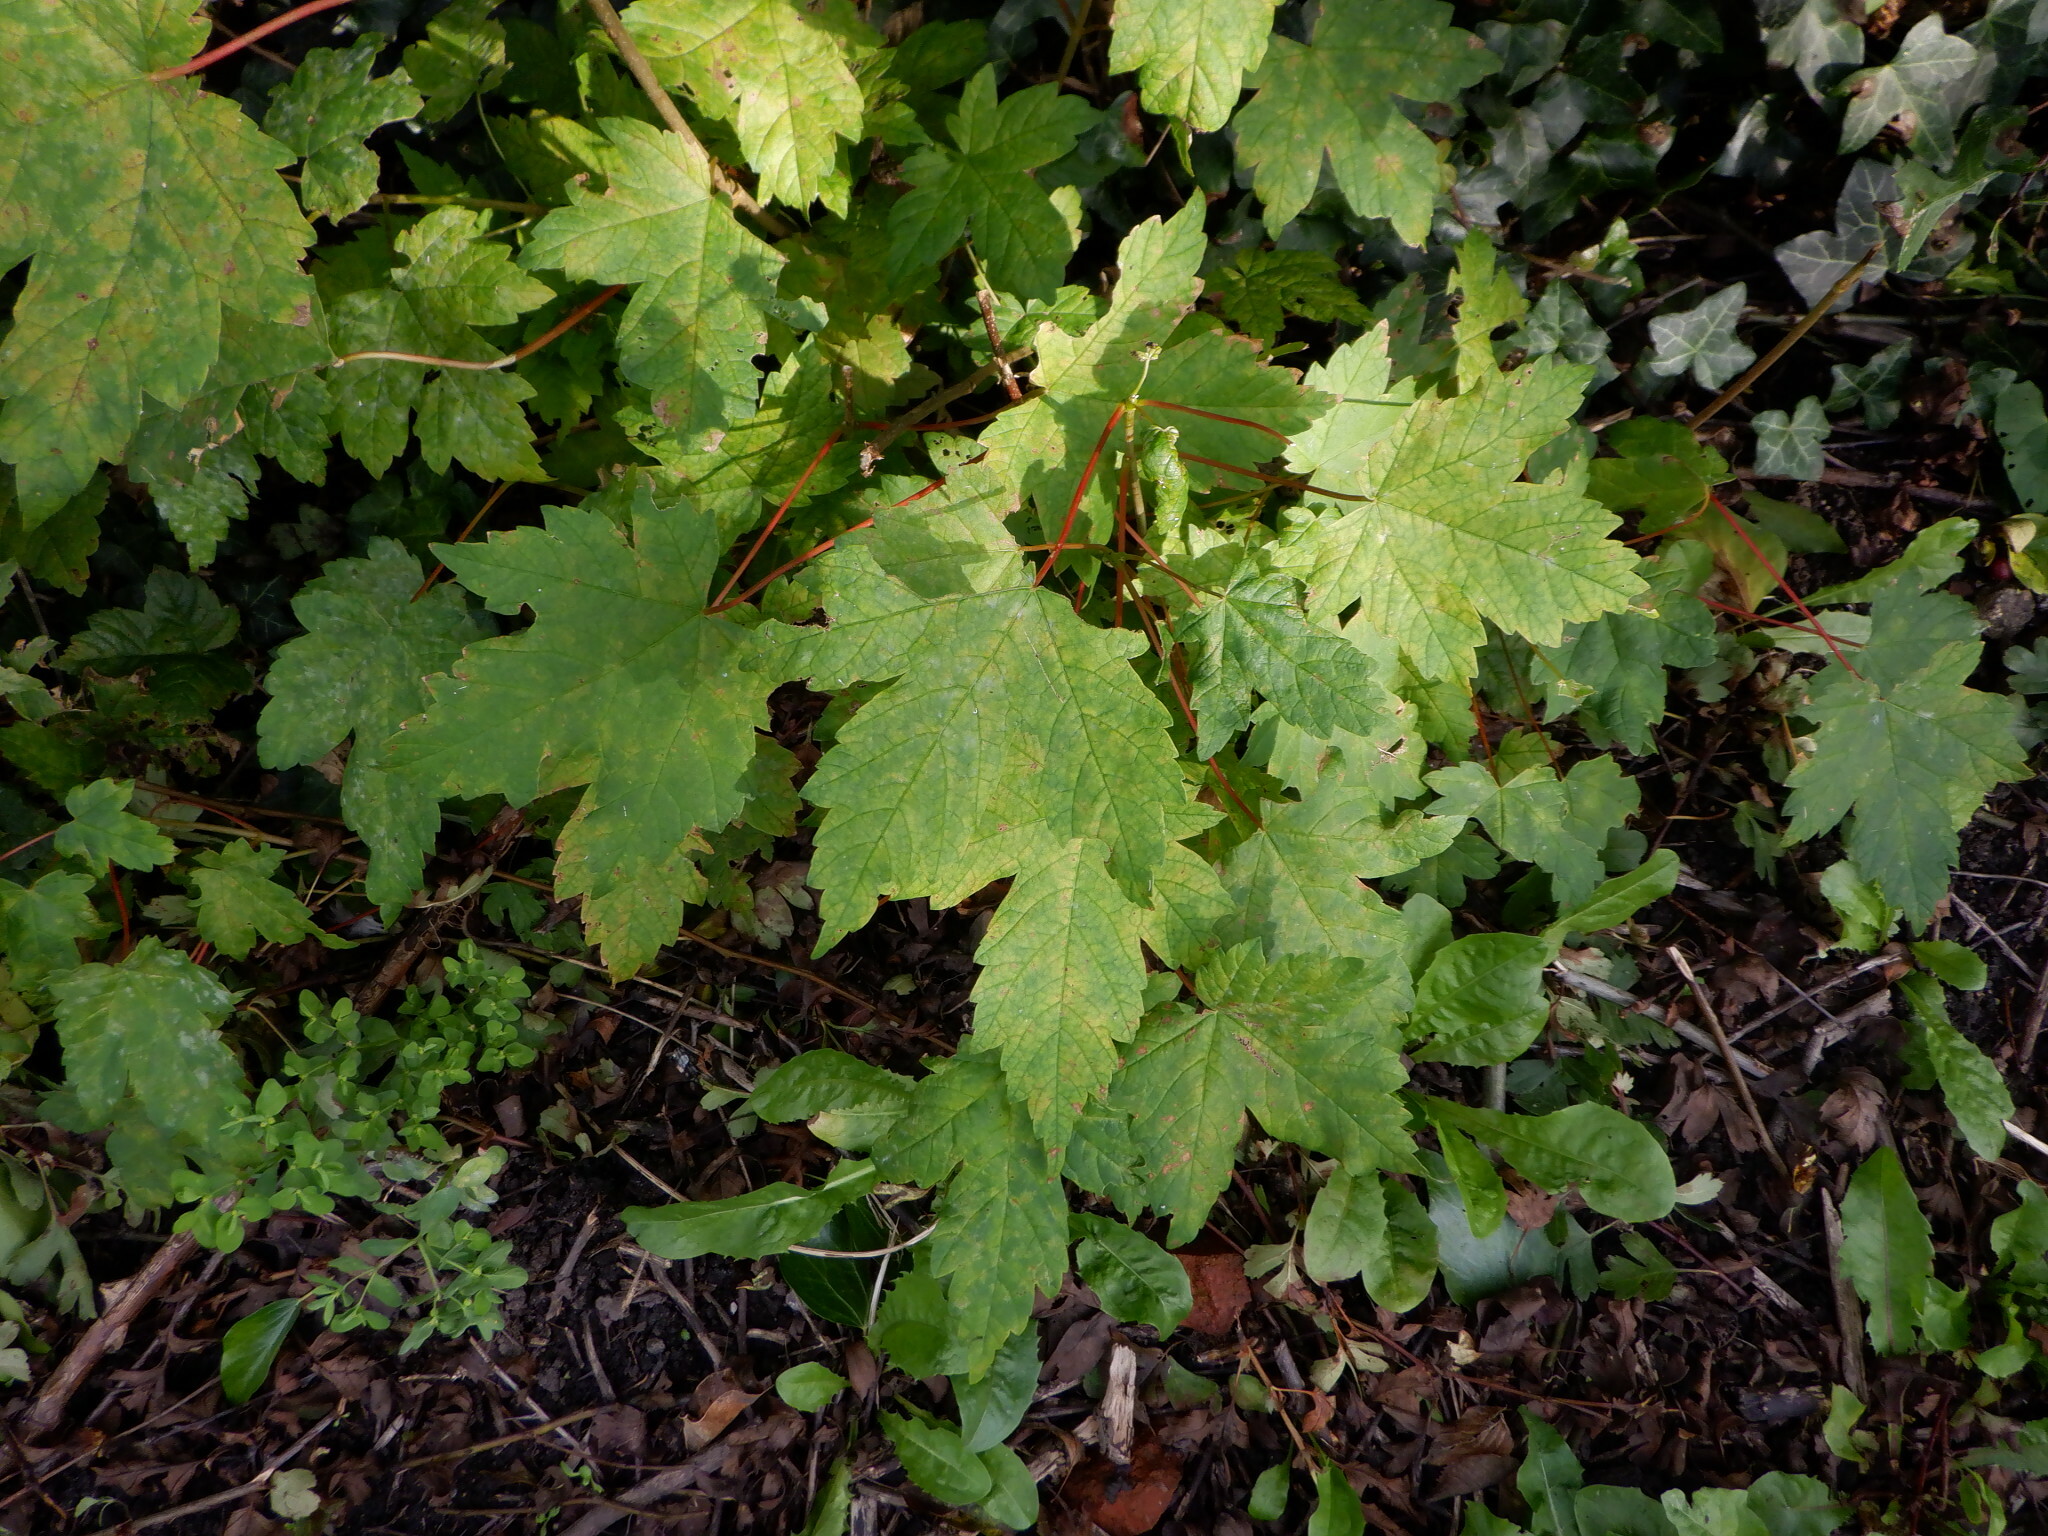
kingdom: Plantae
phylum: Tracheophyta
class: Magnoliopsida
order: Sapindales
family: Sapindaceae
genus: Acer
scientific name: Acer pseudoplatanus
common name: Sycamore
